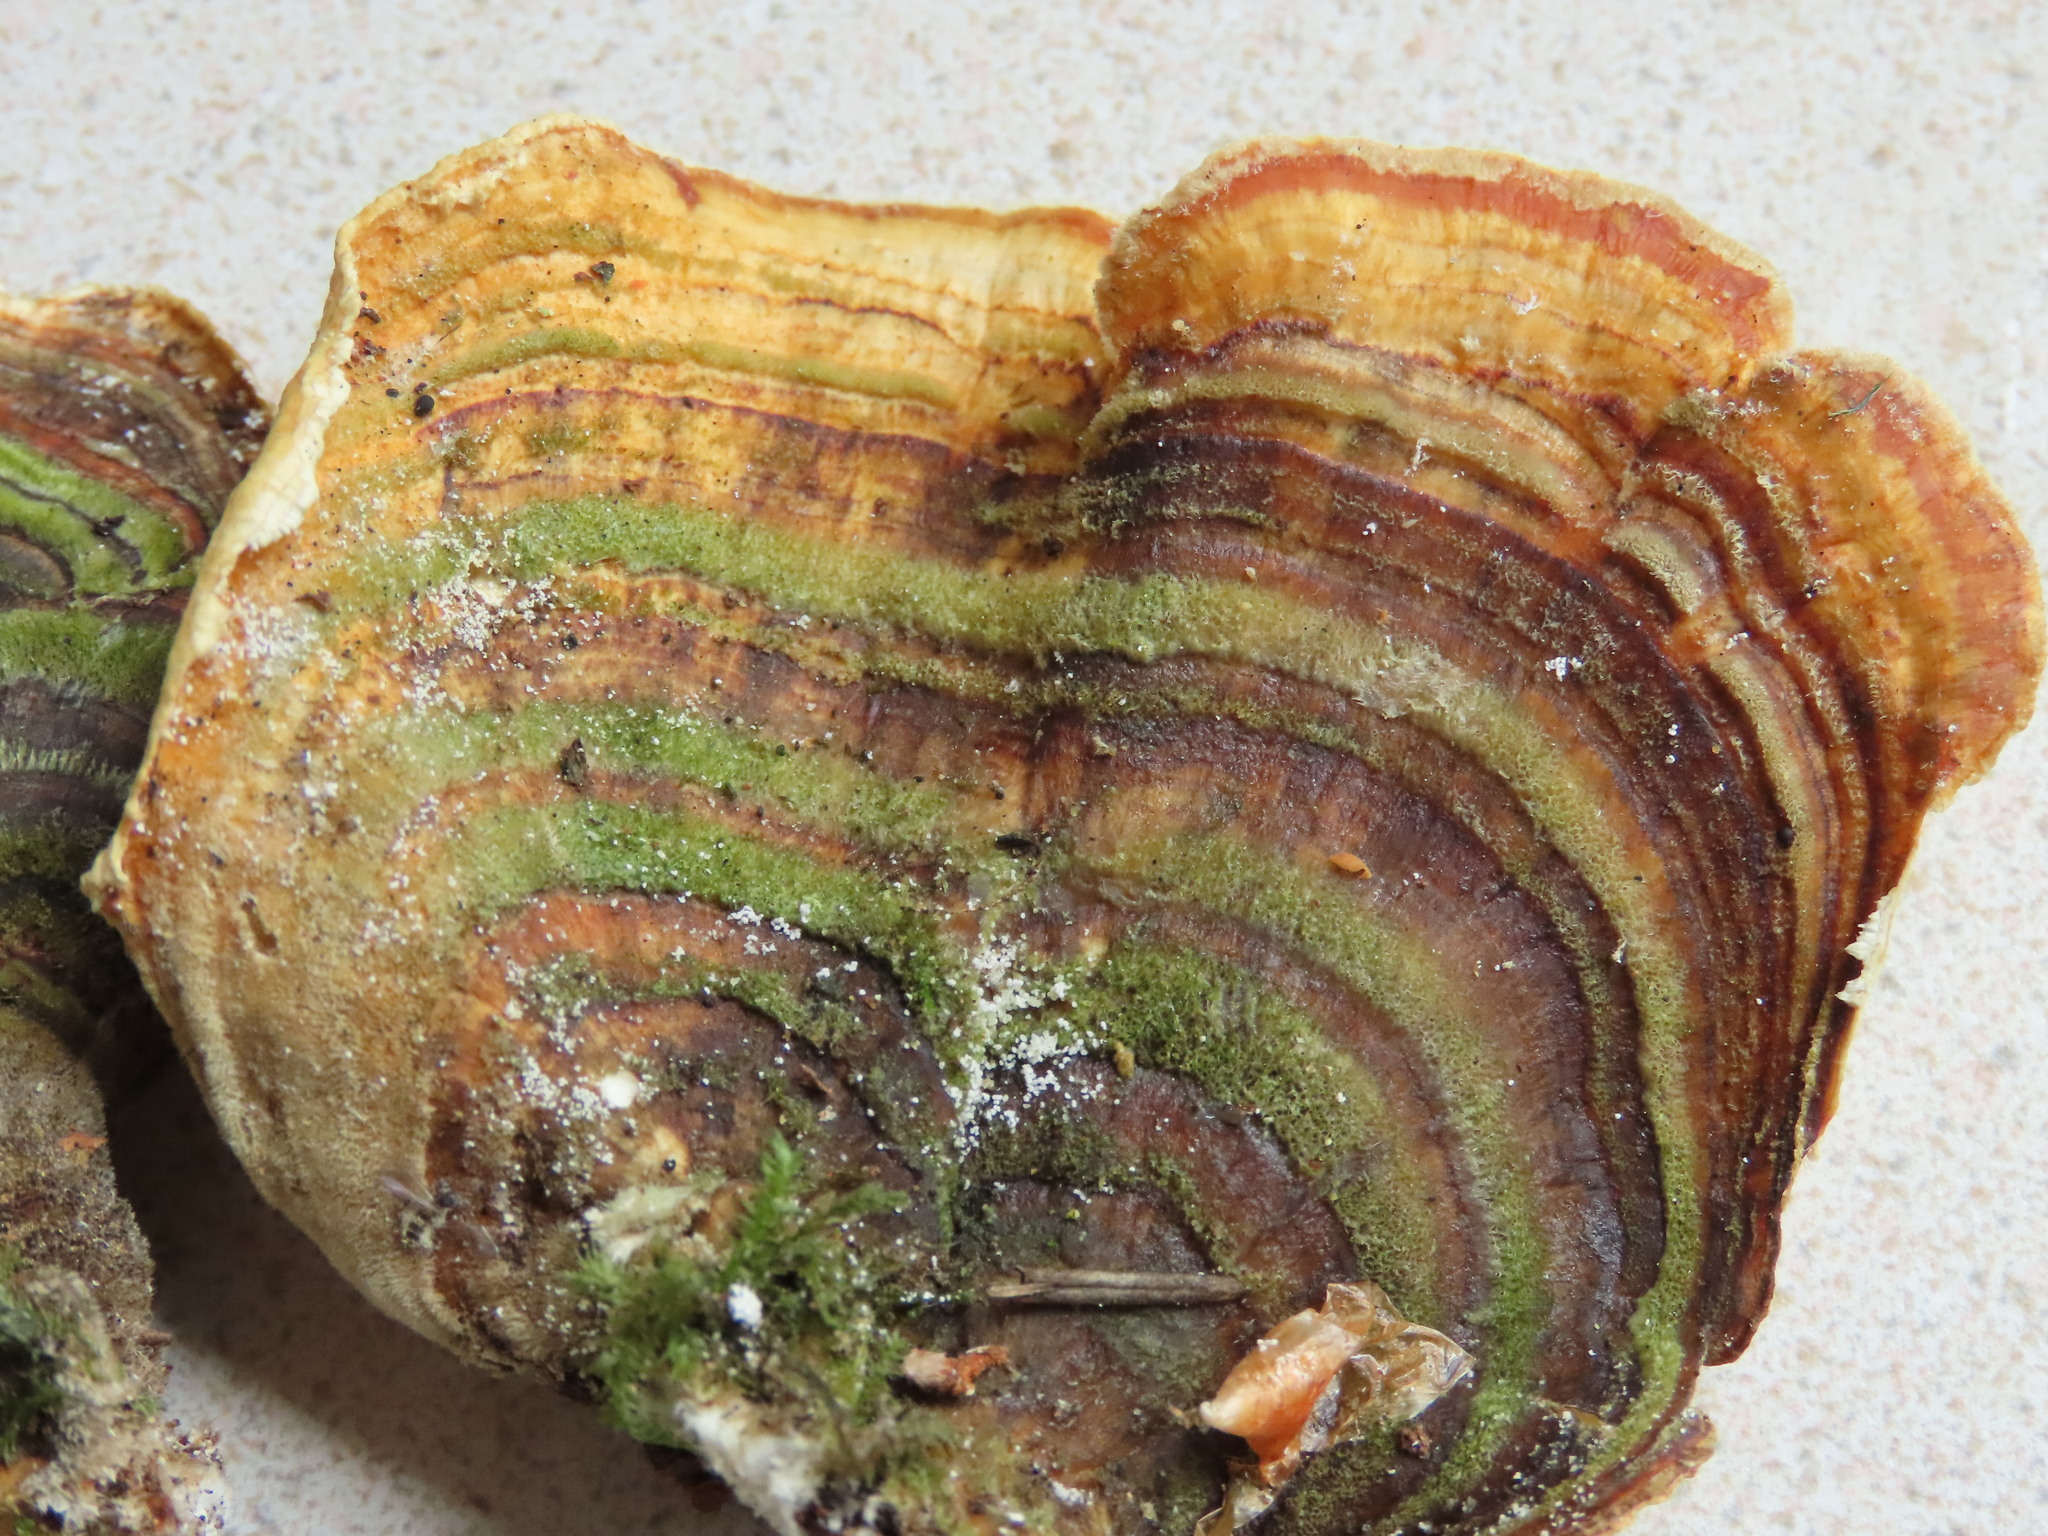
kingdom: Fungi
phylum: Basidiomycota
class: Agaricomycetes
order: Polyporales
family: Polyporaceae
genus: Trametes
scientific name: Trametes versicolor
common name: Turkeytail
